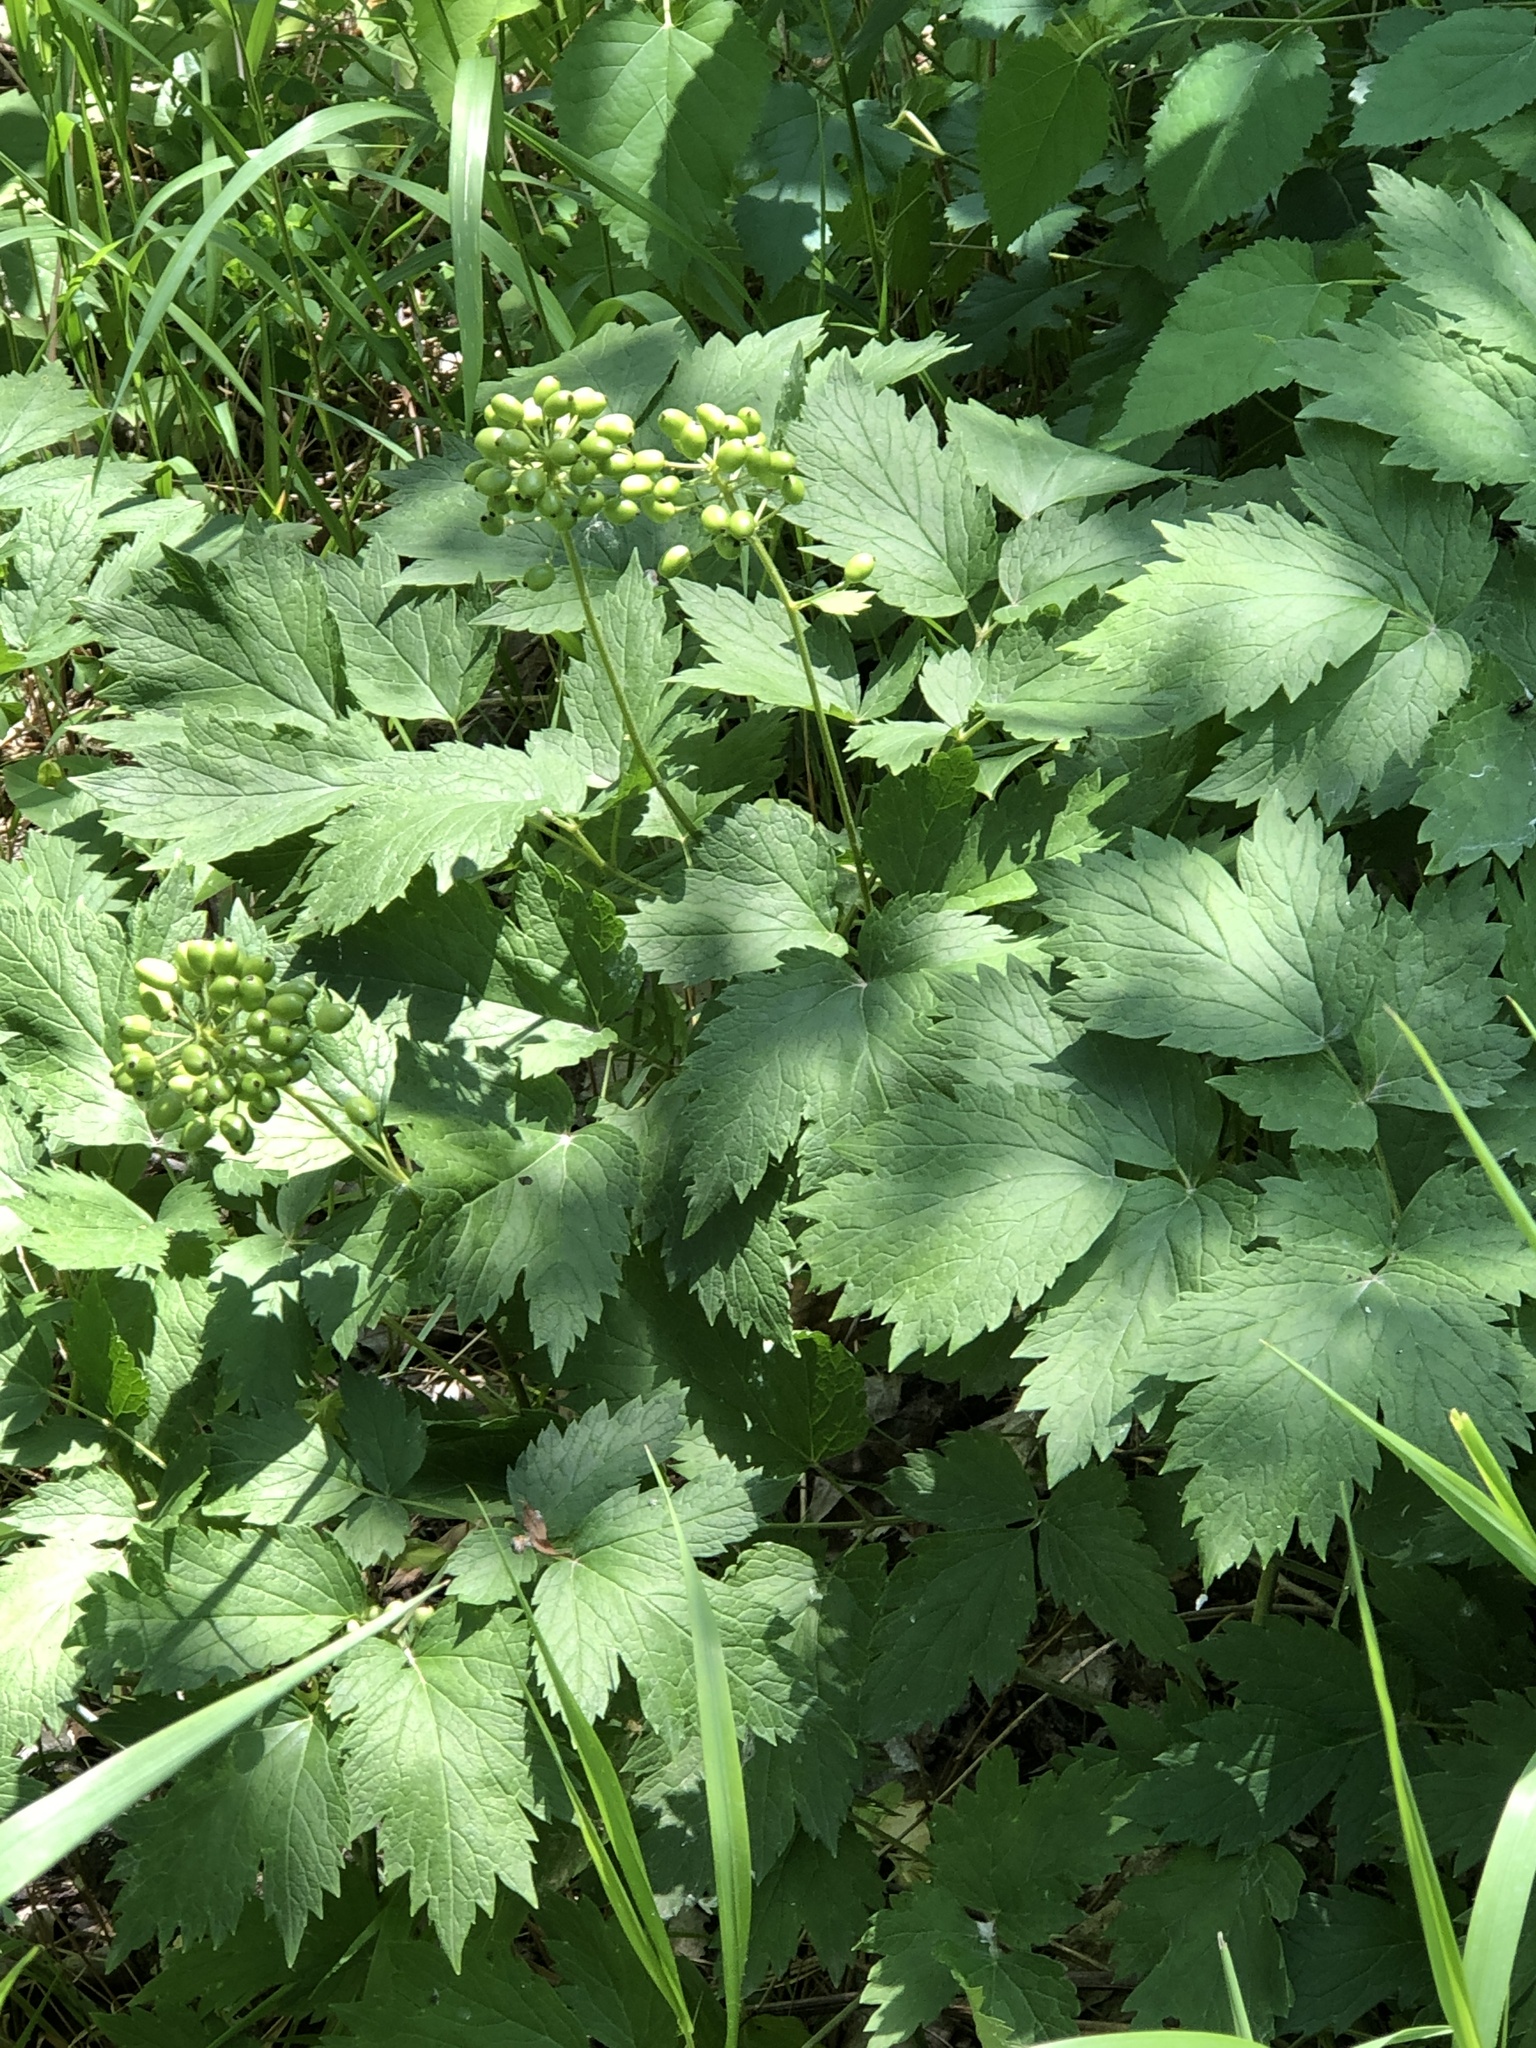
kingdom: Plantae
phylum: Tracheophyta
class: Magnoliopsida
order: Ranunculales
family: Ranunculaceae
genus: Actaea
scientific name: Actaea rubra
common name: Red baneberry
